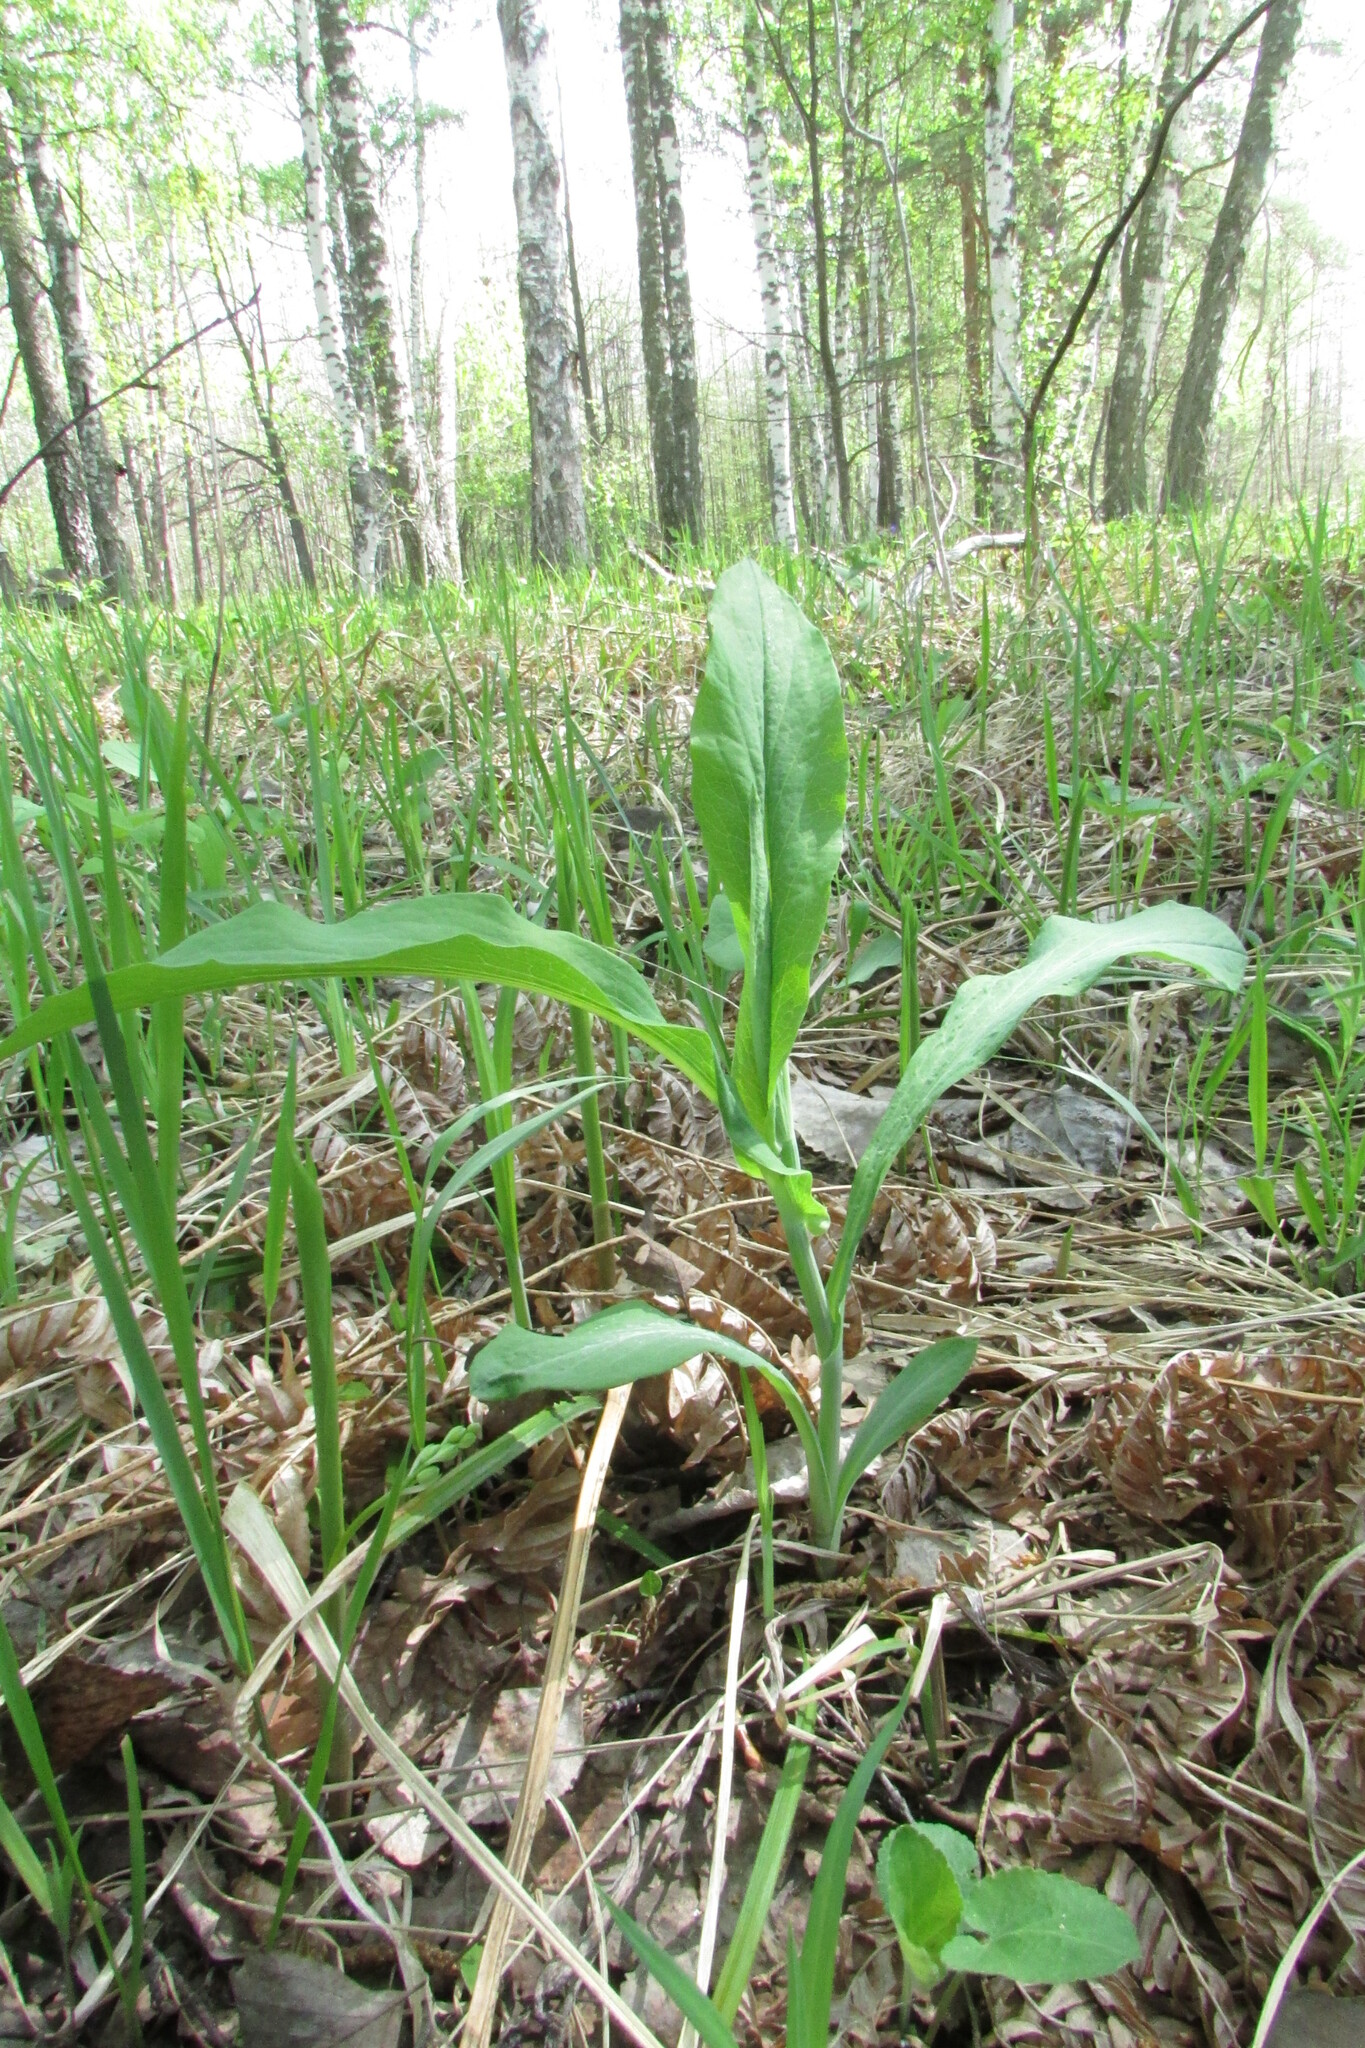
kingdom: Plantae
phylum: Tracheophyta
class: Magnoliopsida
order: Apiales
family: Apiaceae
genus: Bupleurum
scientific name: Bupleurum aureum
